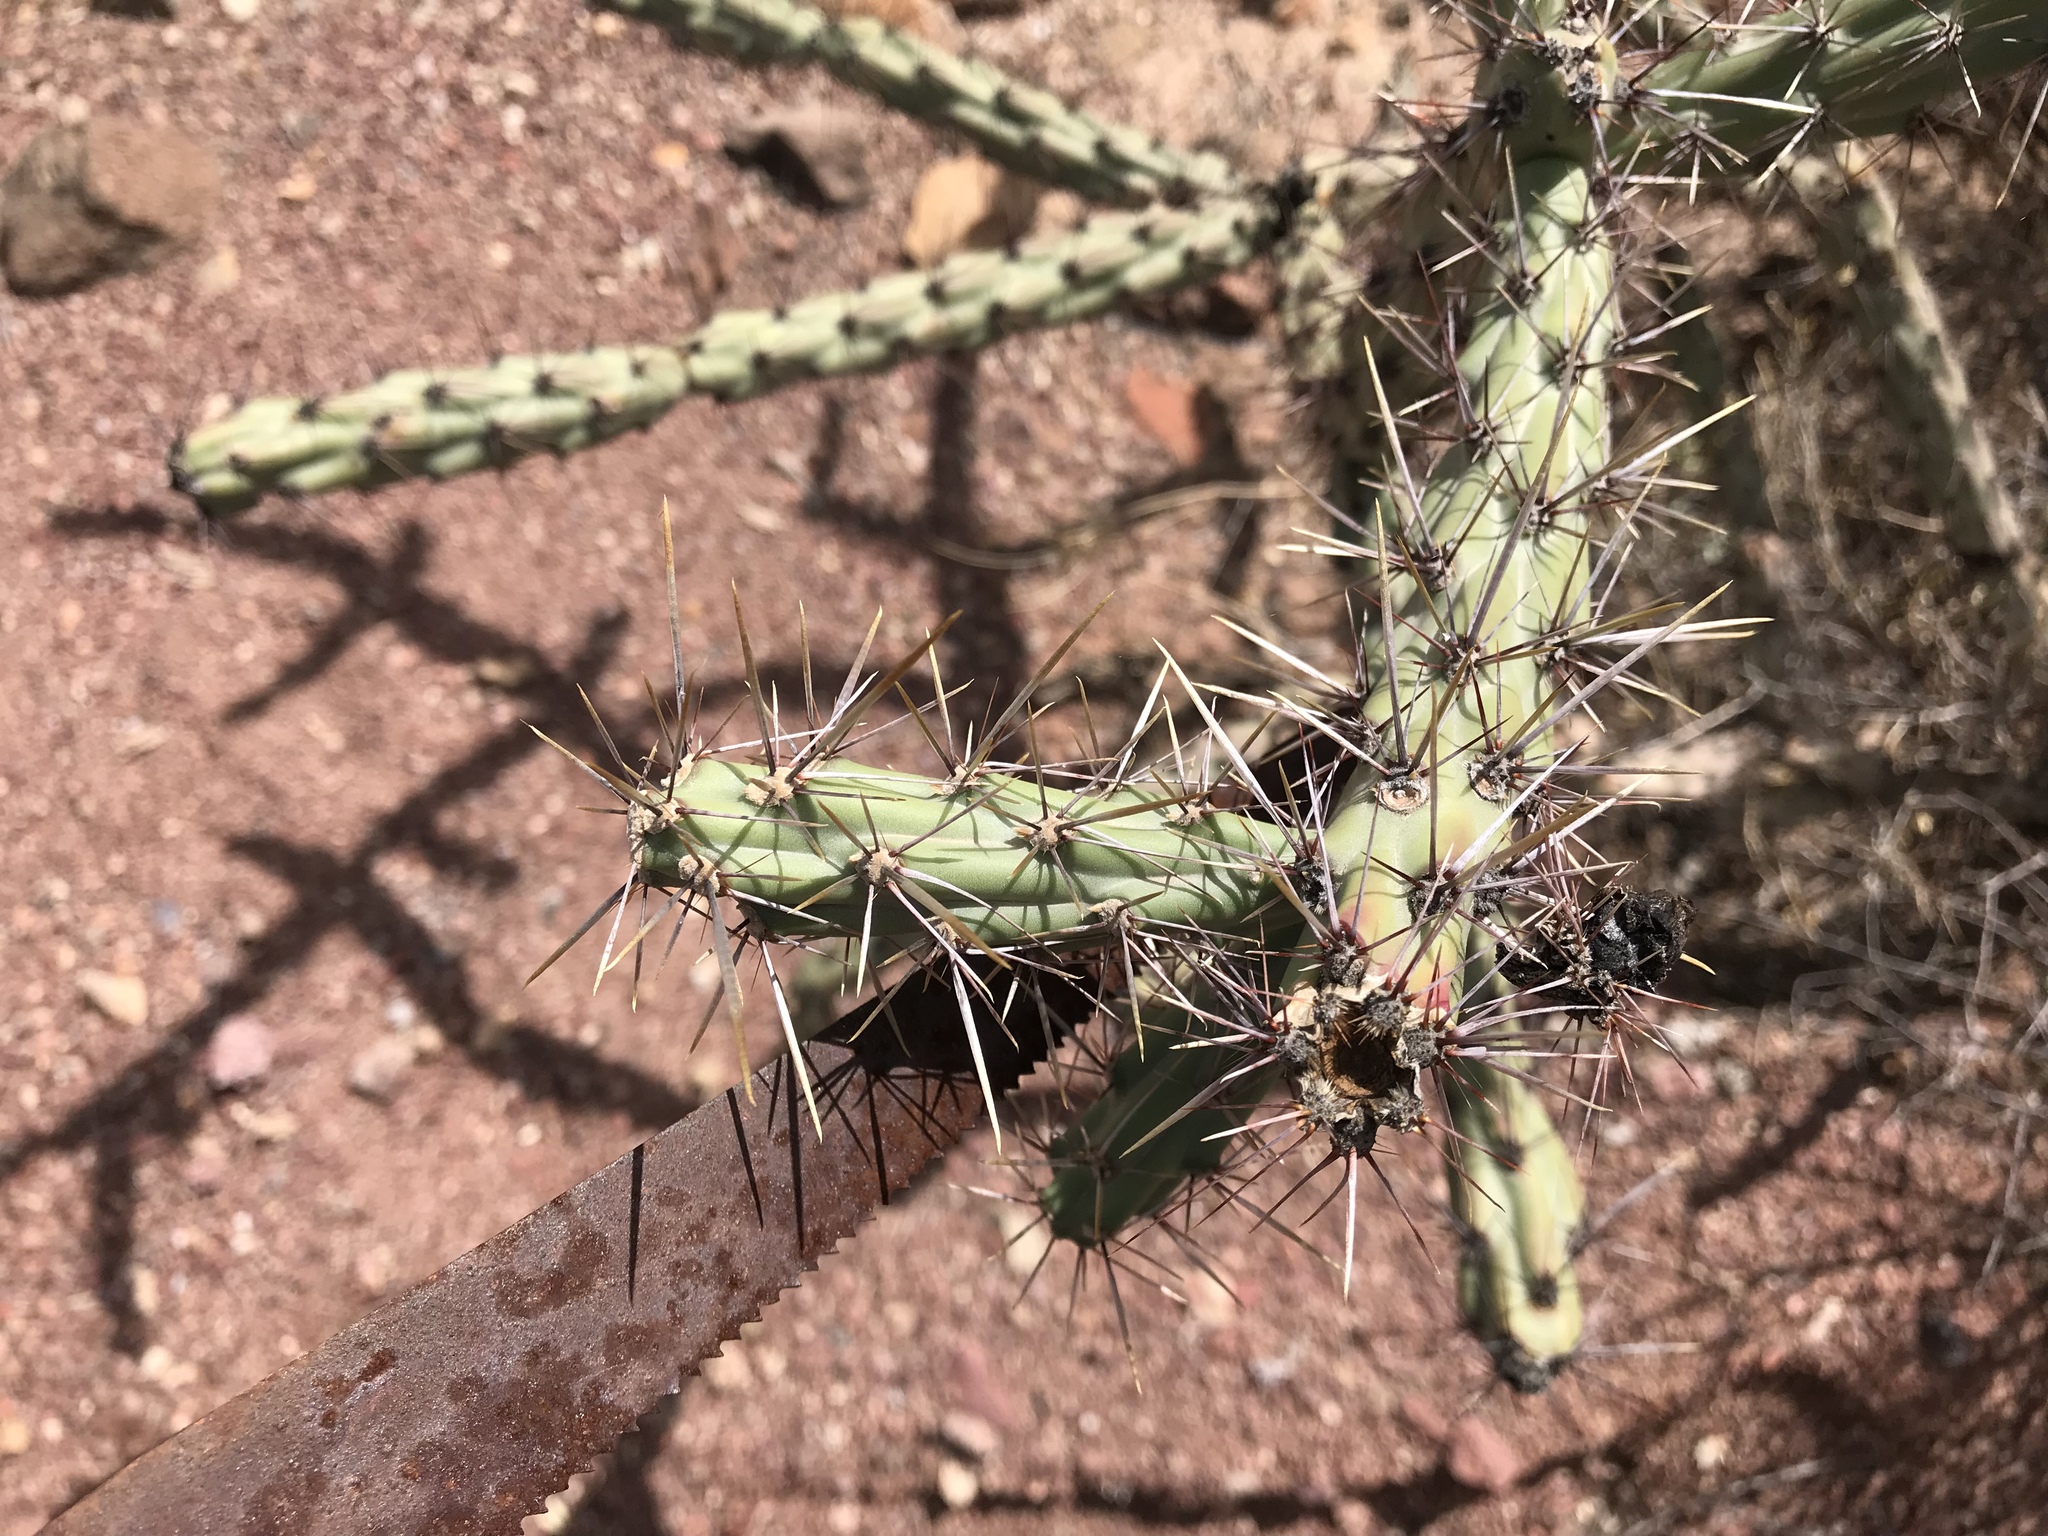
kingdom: Plantae
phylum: Tracheophyta
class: Magnoliopsida
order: Caryophyllales
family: Cactaceae
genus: Cylindropuntia
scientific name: Cylindropuntia acanthocarpa
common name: Buckhorn cholla
